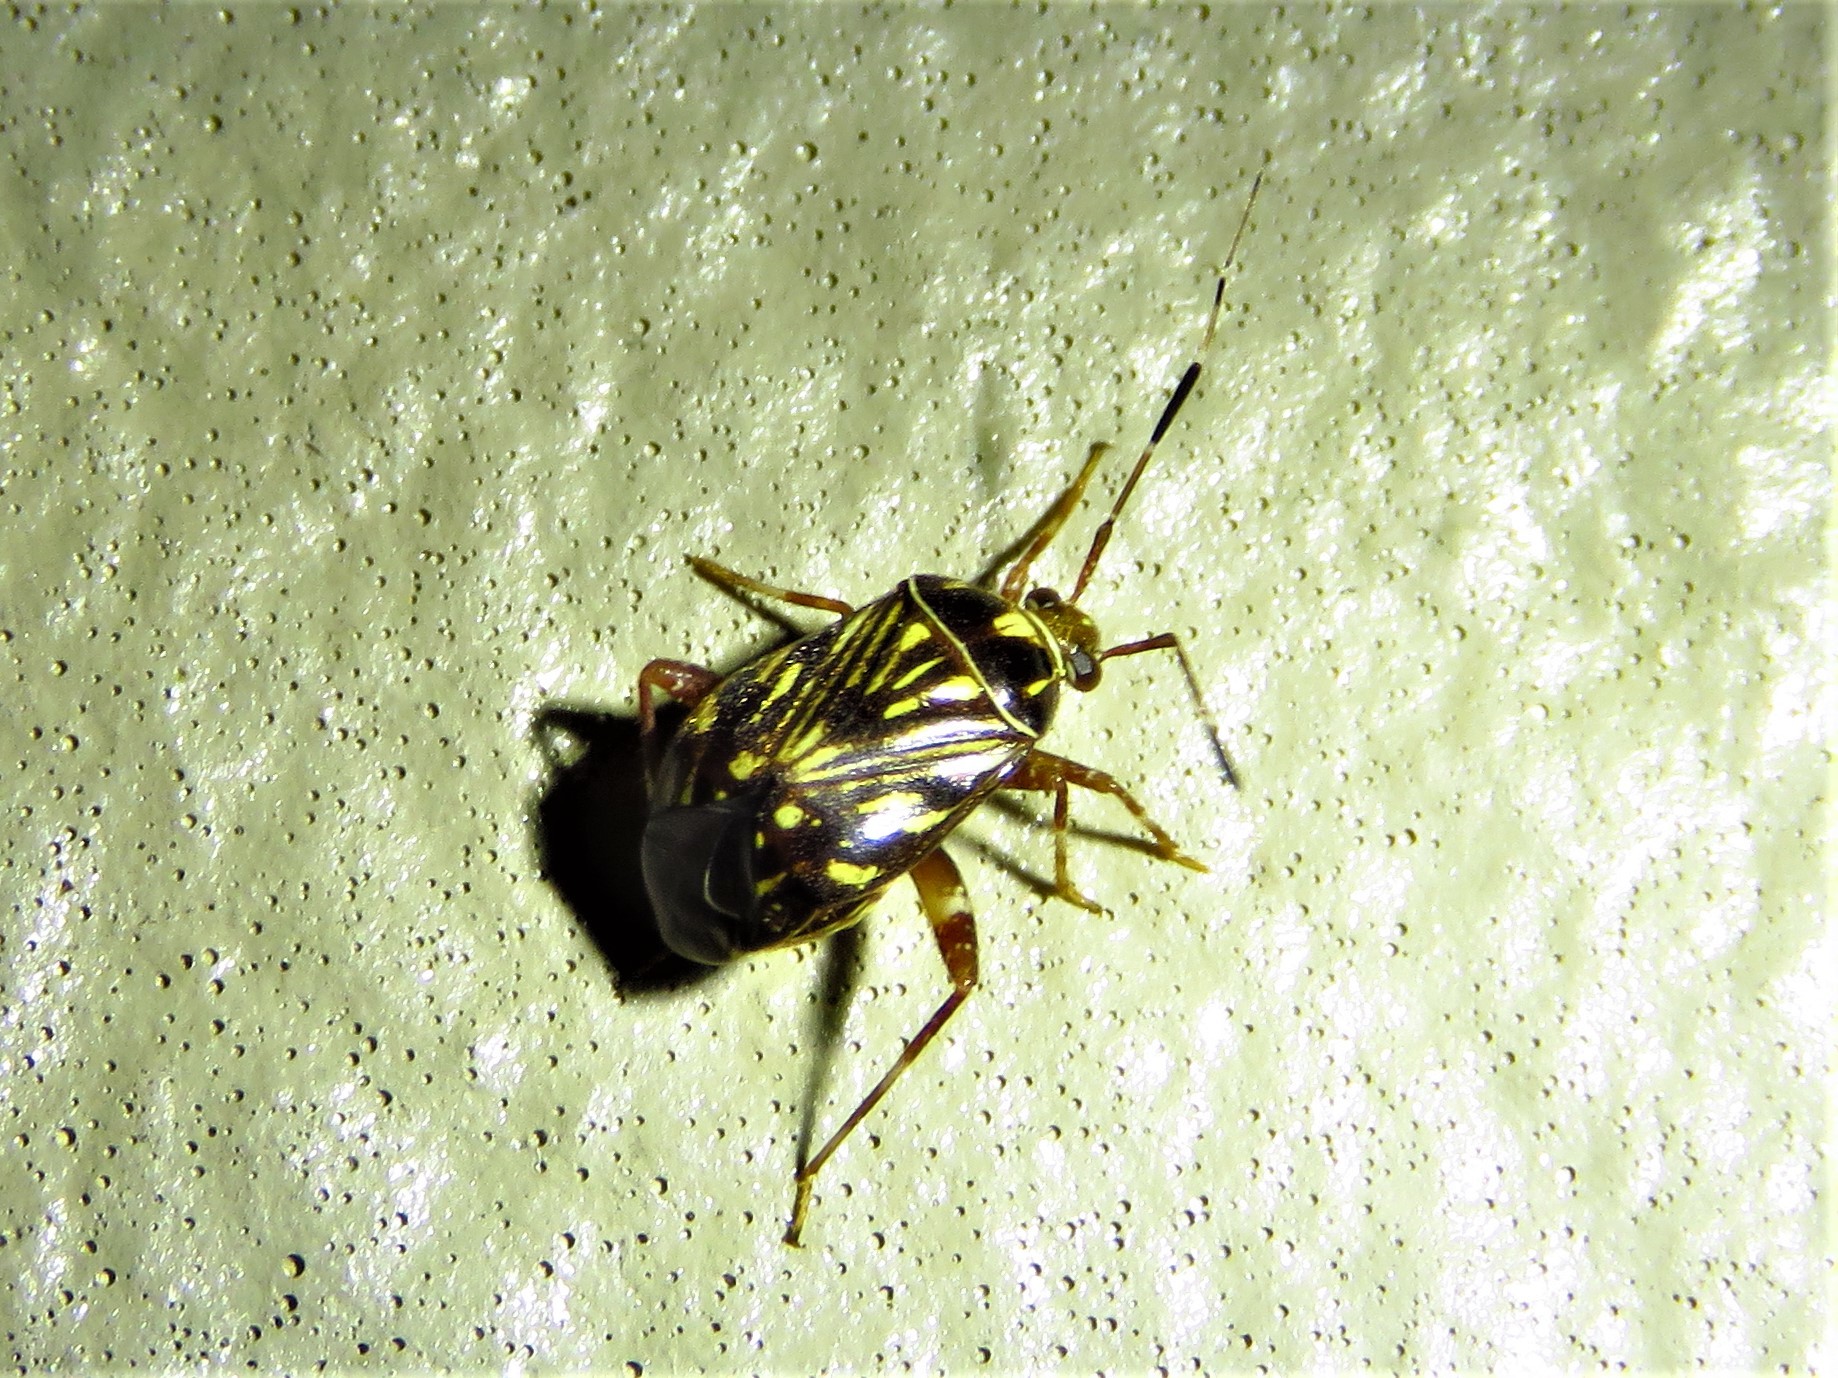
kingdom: Animalia
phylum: Arthropoda
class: Insecta
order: Hemiptera
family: Miridae
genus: Taedia
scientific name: Taedia virgulata
